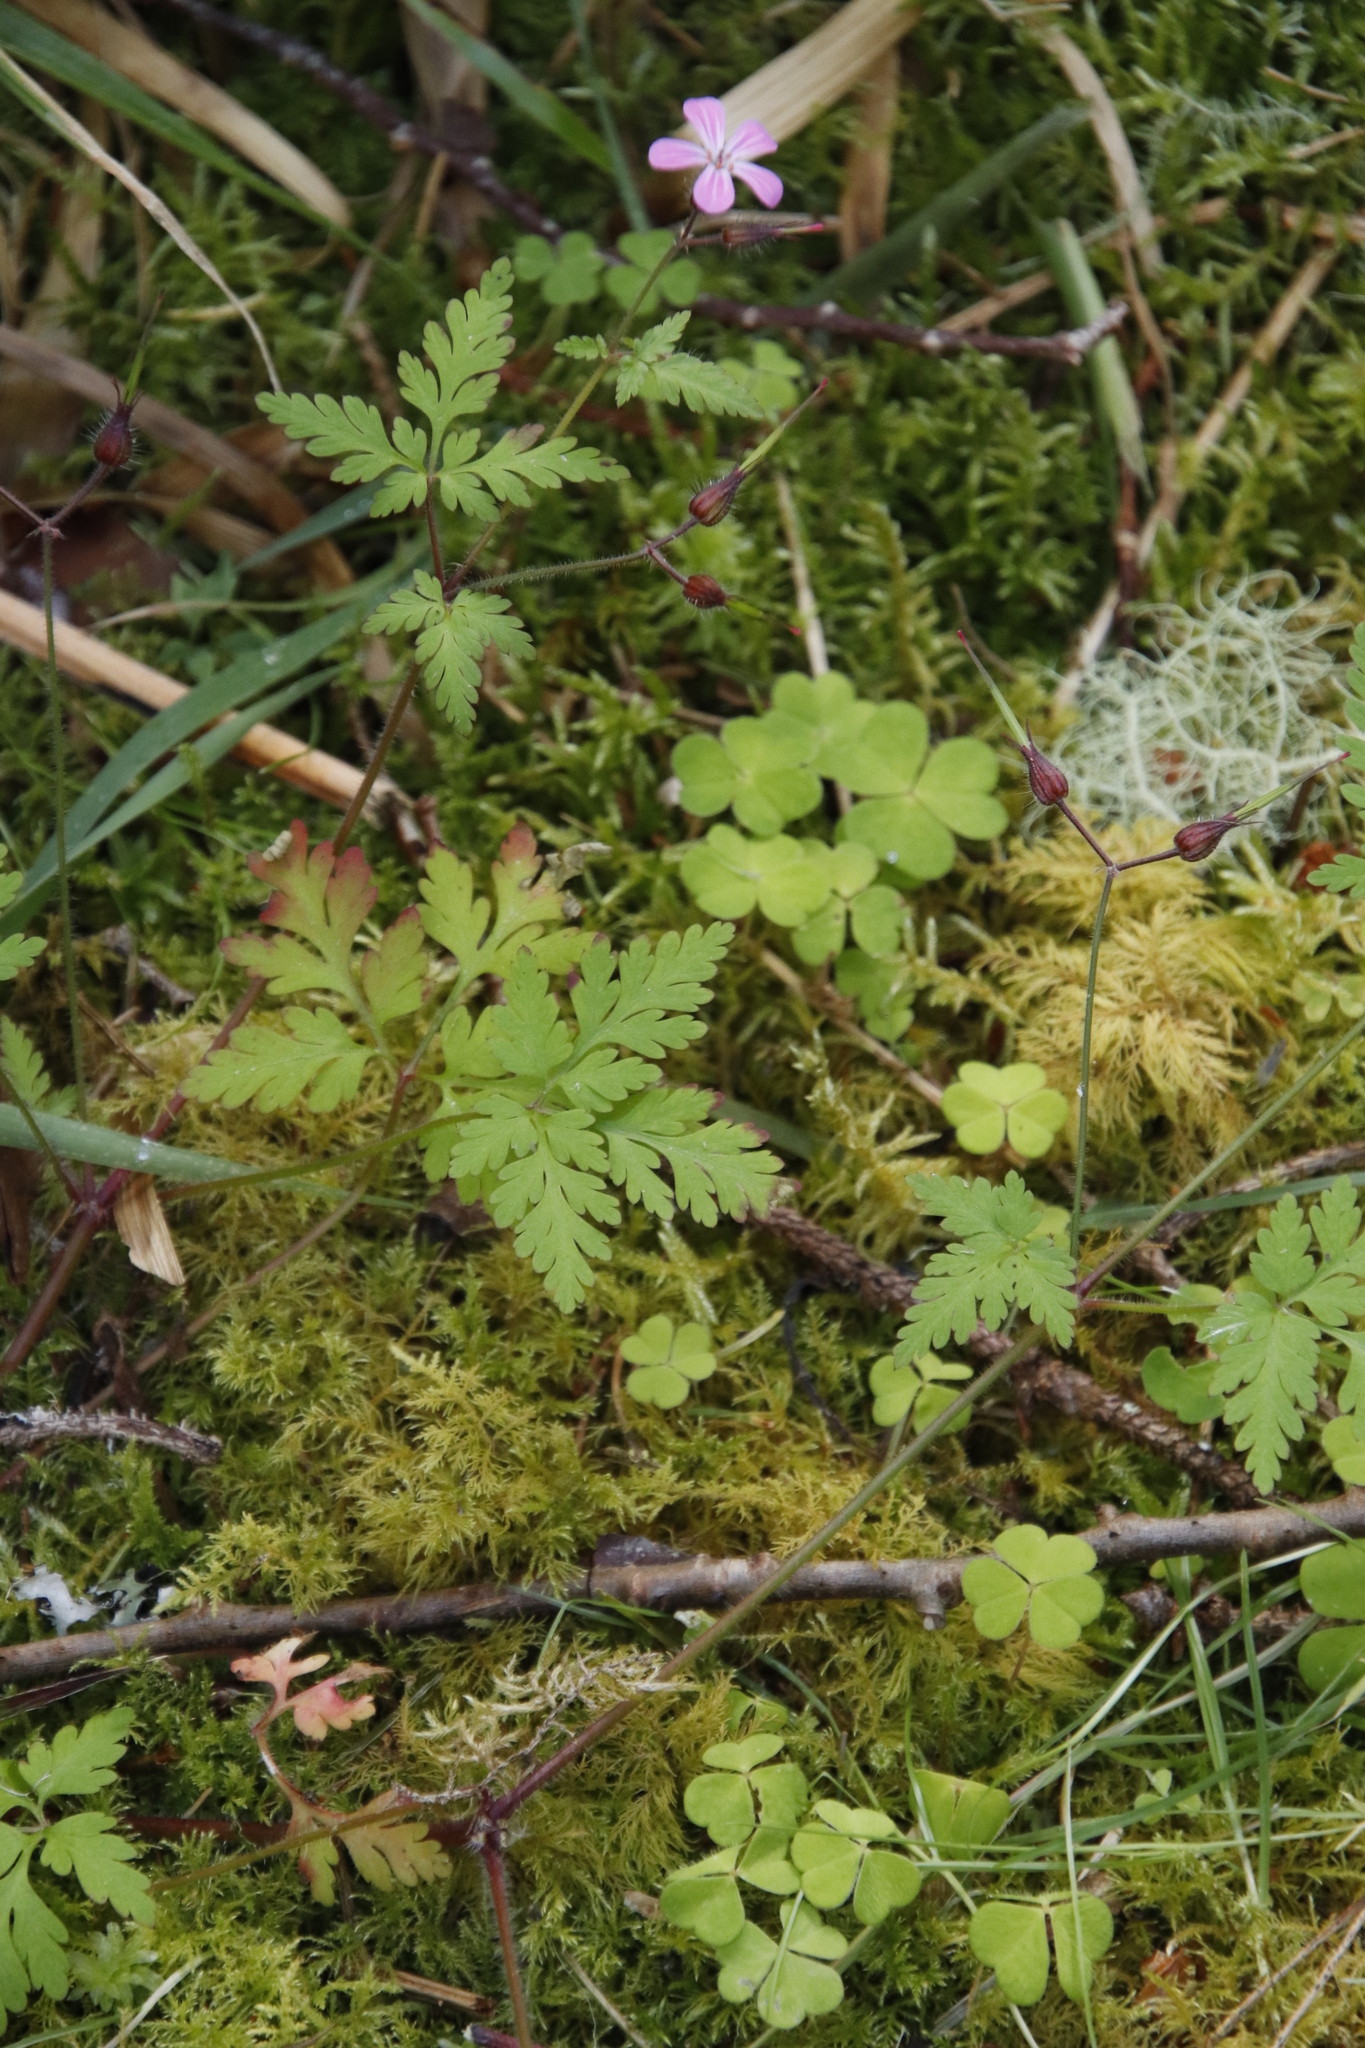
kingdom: Plantae
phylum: Tracheophyta
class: Magnoliopsida
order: Oxalidales
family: Oxalidaceae
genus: Oxalis
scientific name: Oxalis acetosella
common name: Wood-sorrel
